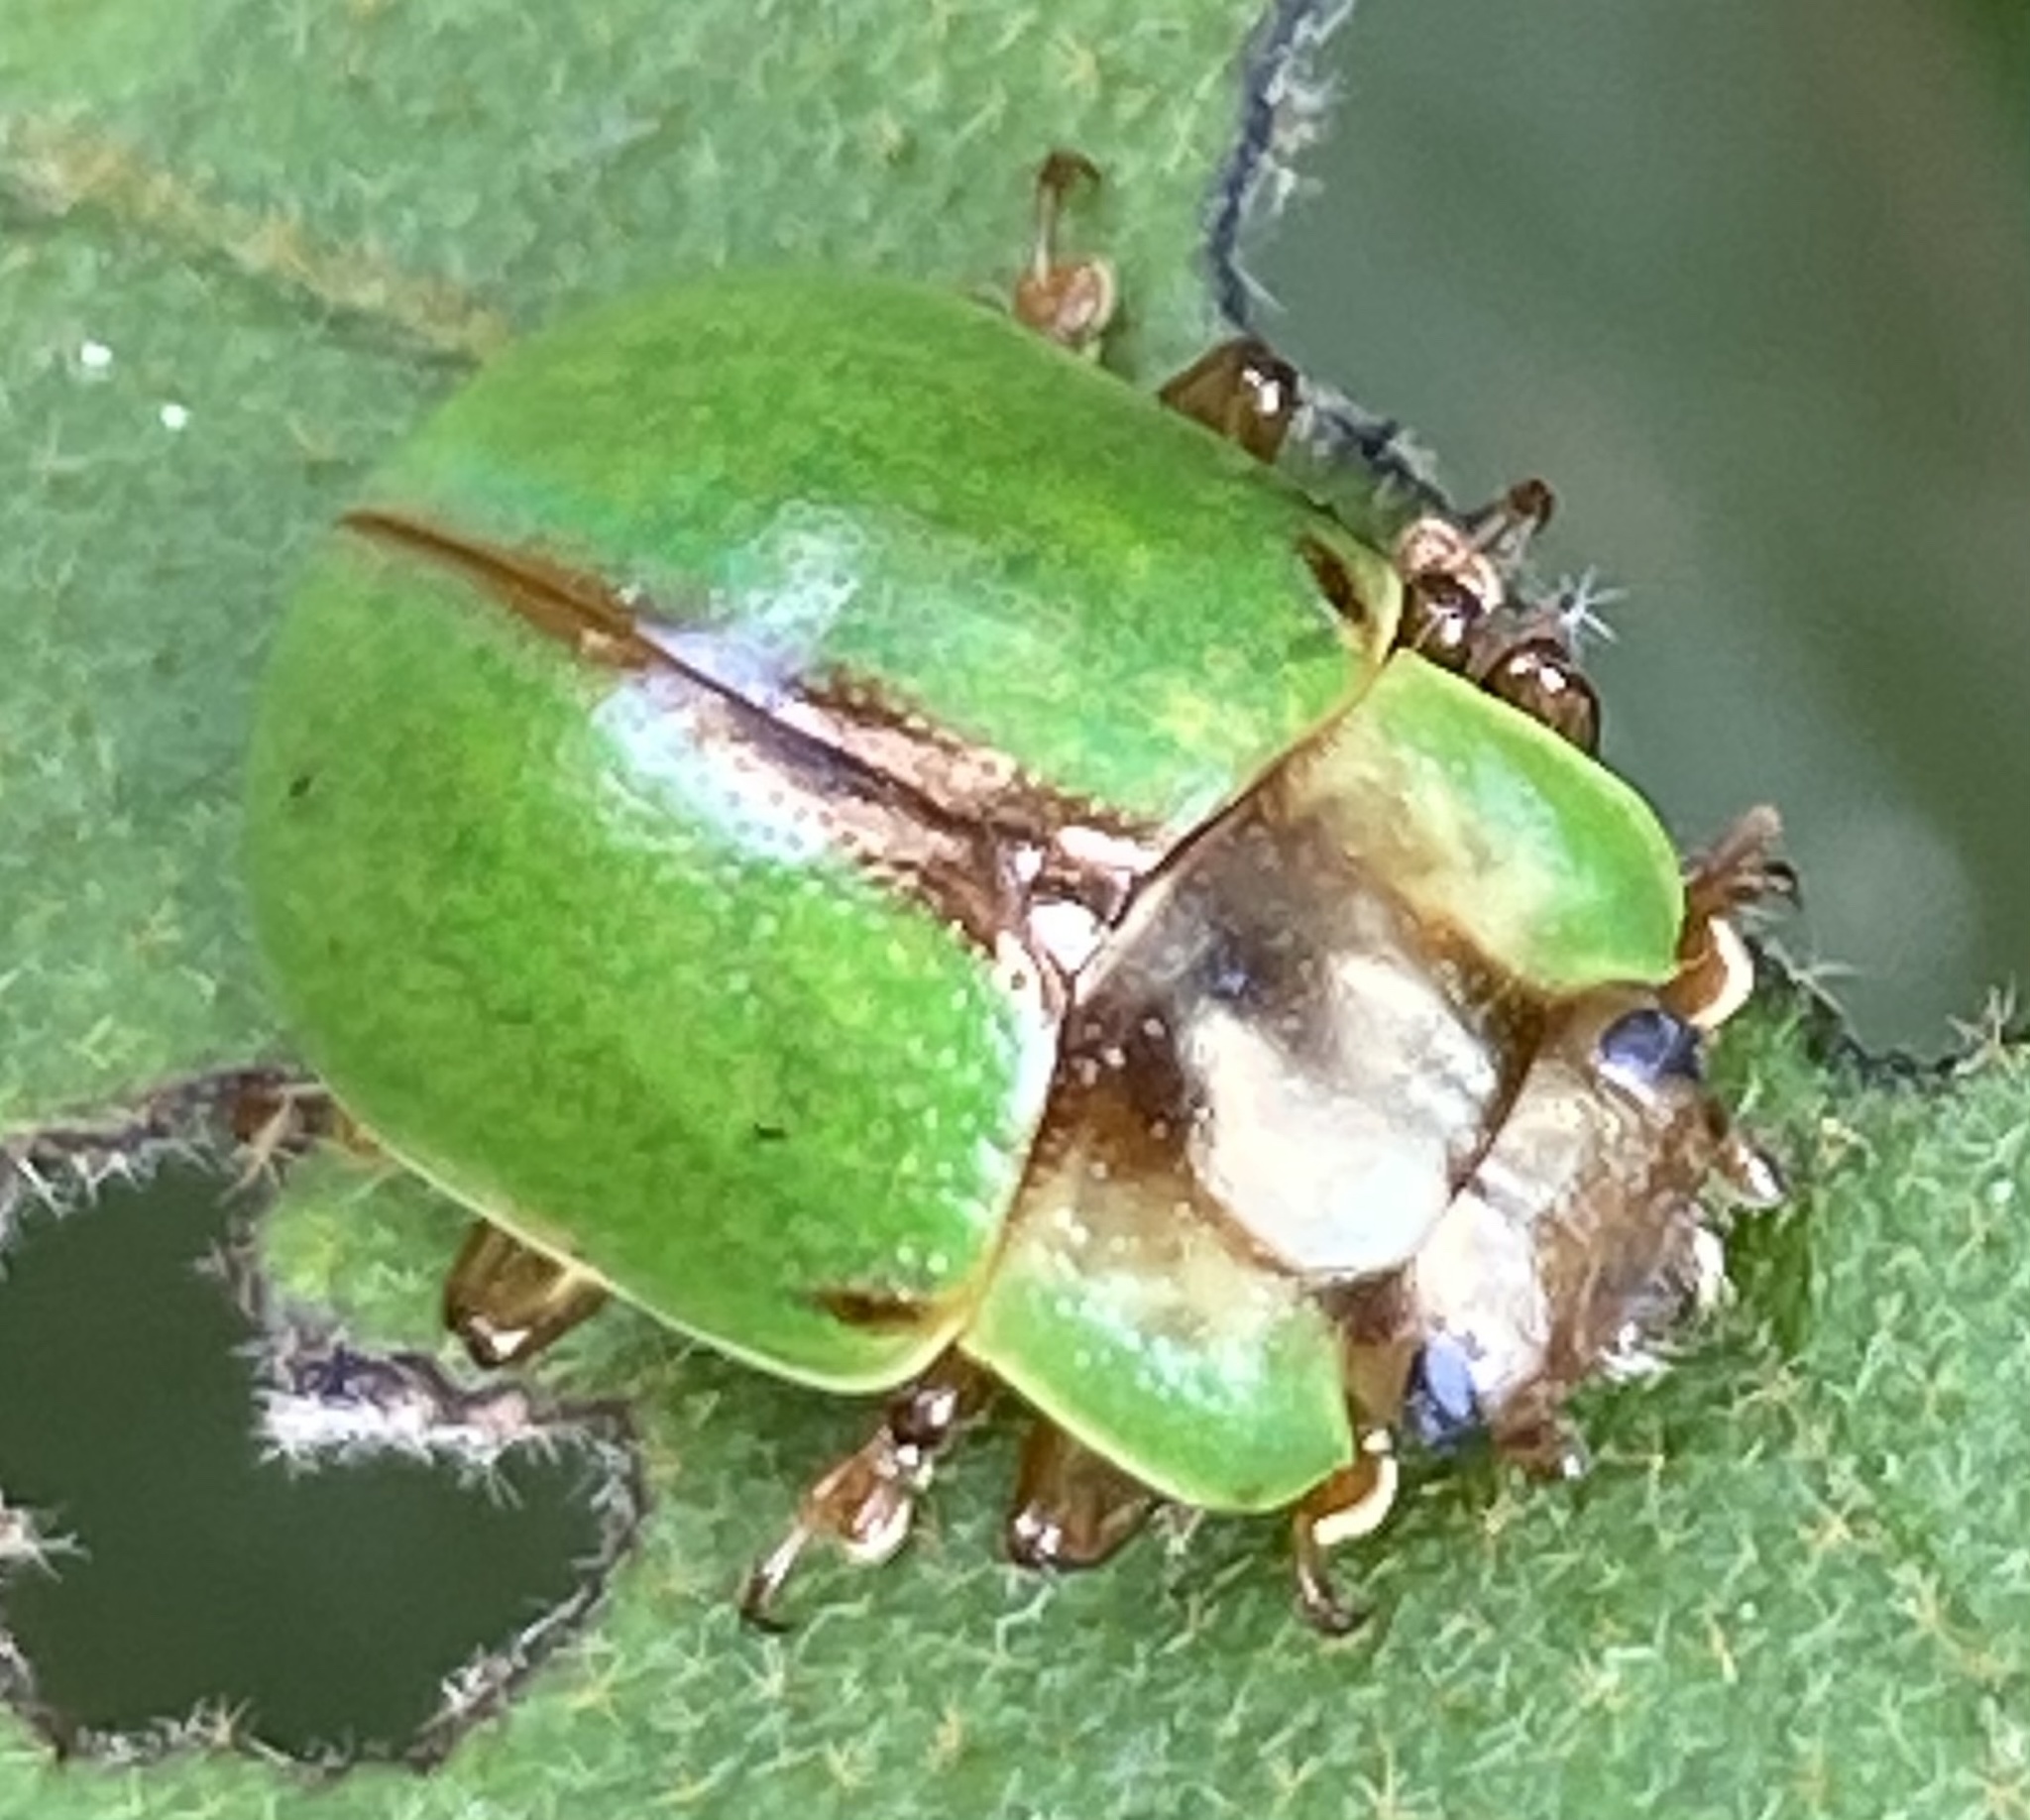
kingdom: Animalia
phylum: Arthropoda
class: Insecta
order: Coleoptera
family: Chrysomelidae
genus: Platyphora
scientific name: Platyphora
